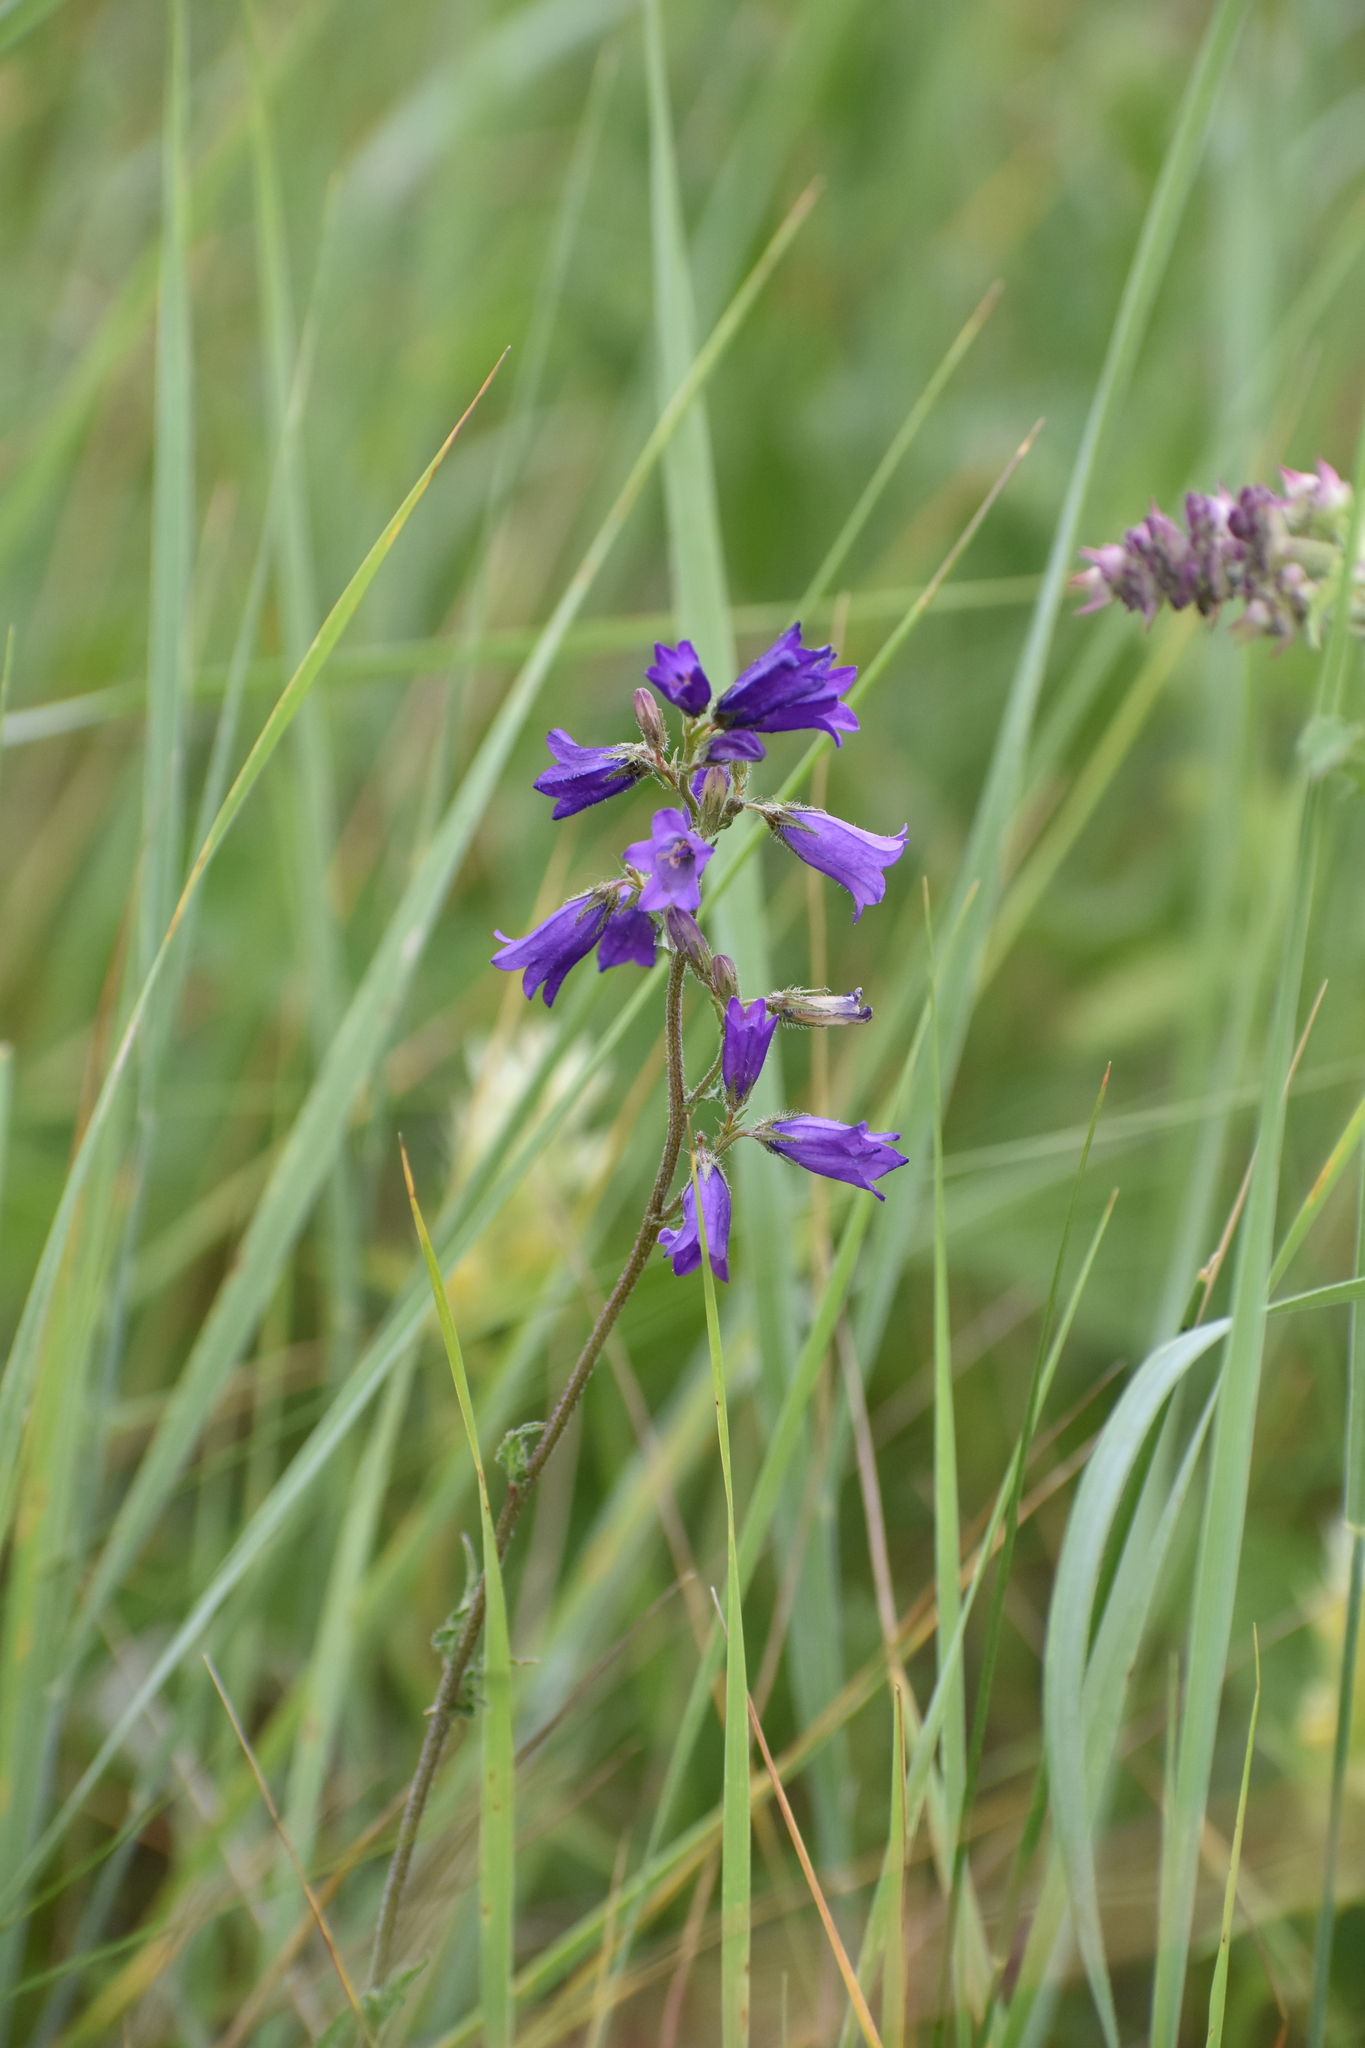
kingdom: Plantae
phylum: Tracheophyta
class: Magnoliopsida
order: Asterales
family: Campanulaceae
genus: Campanula
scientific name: Campanula sibirica
